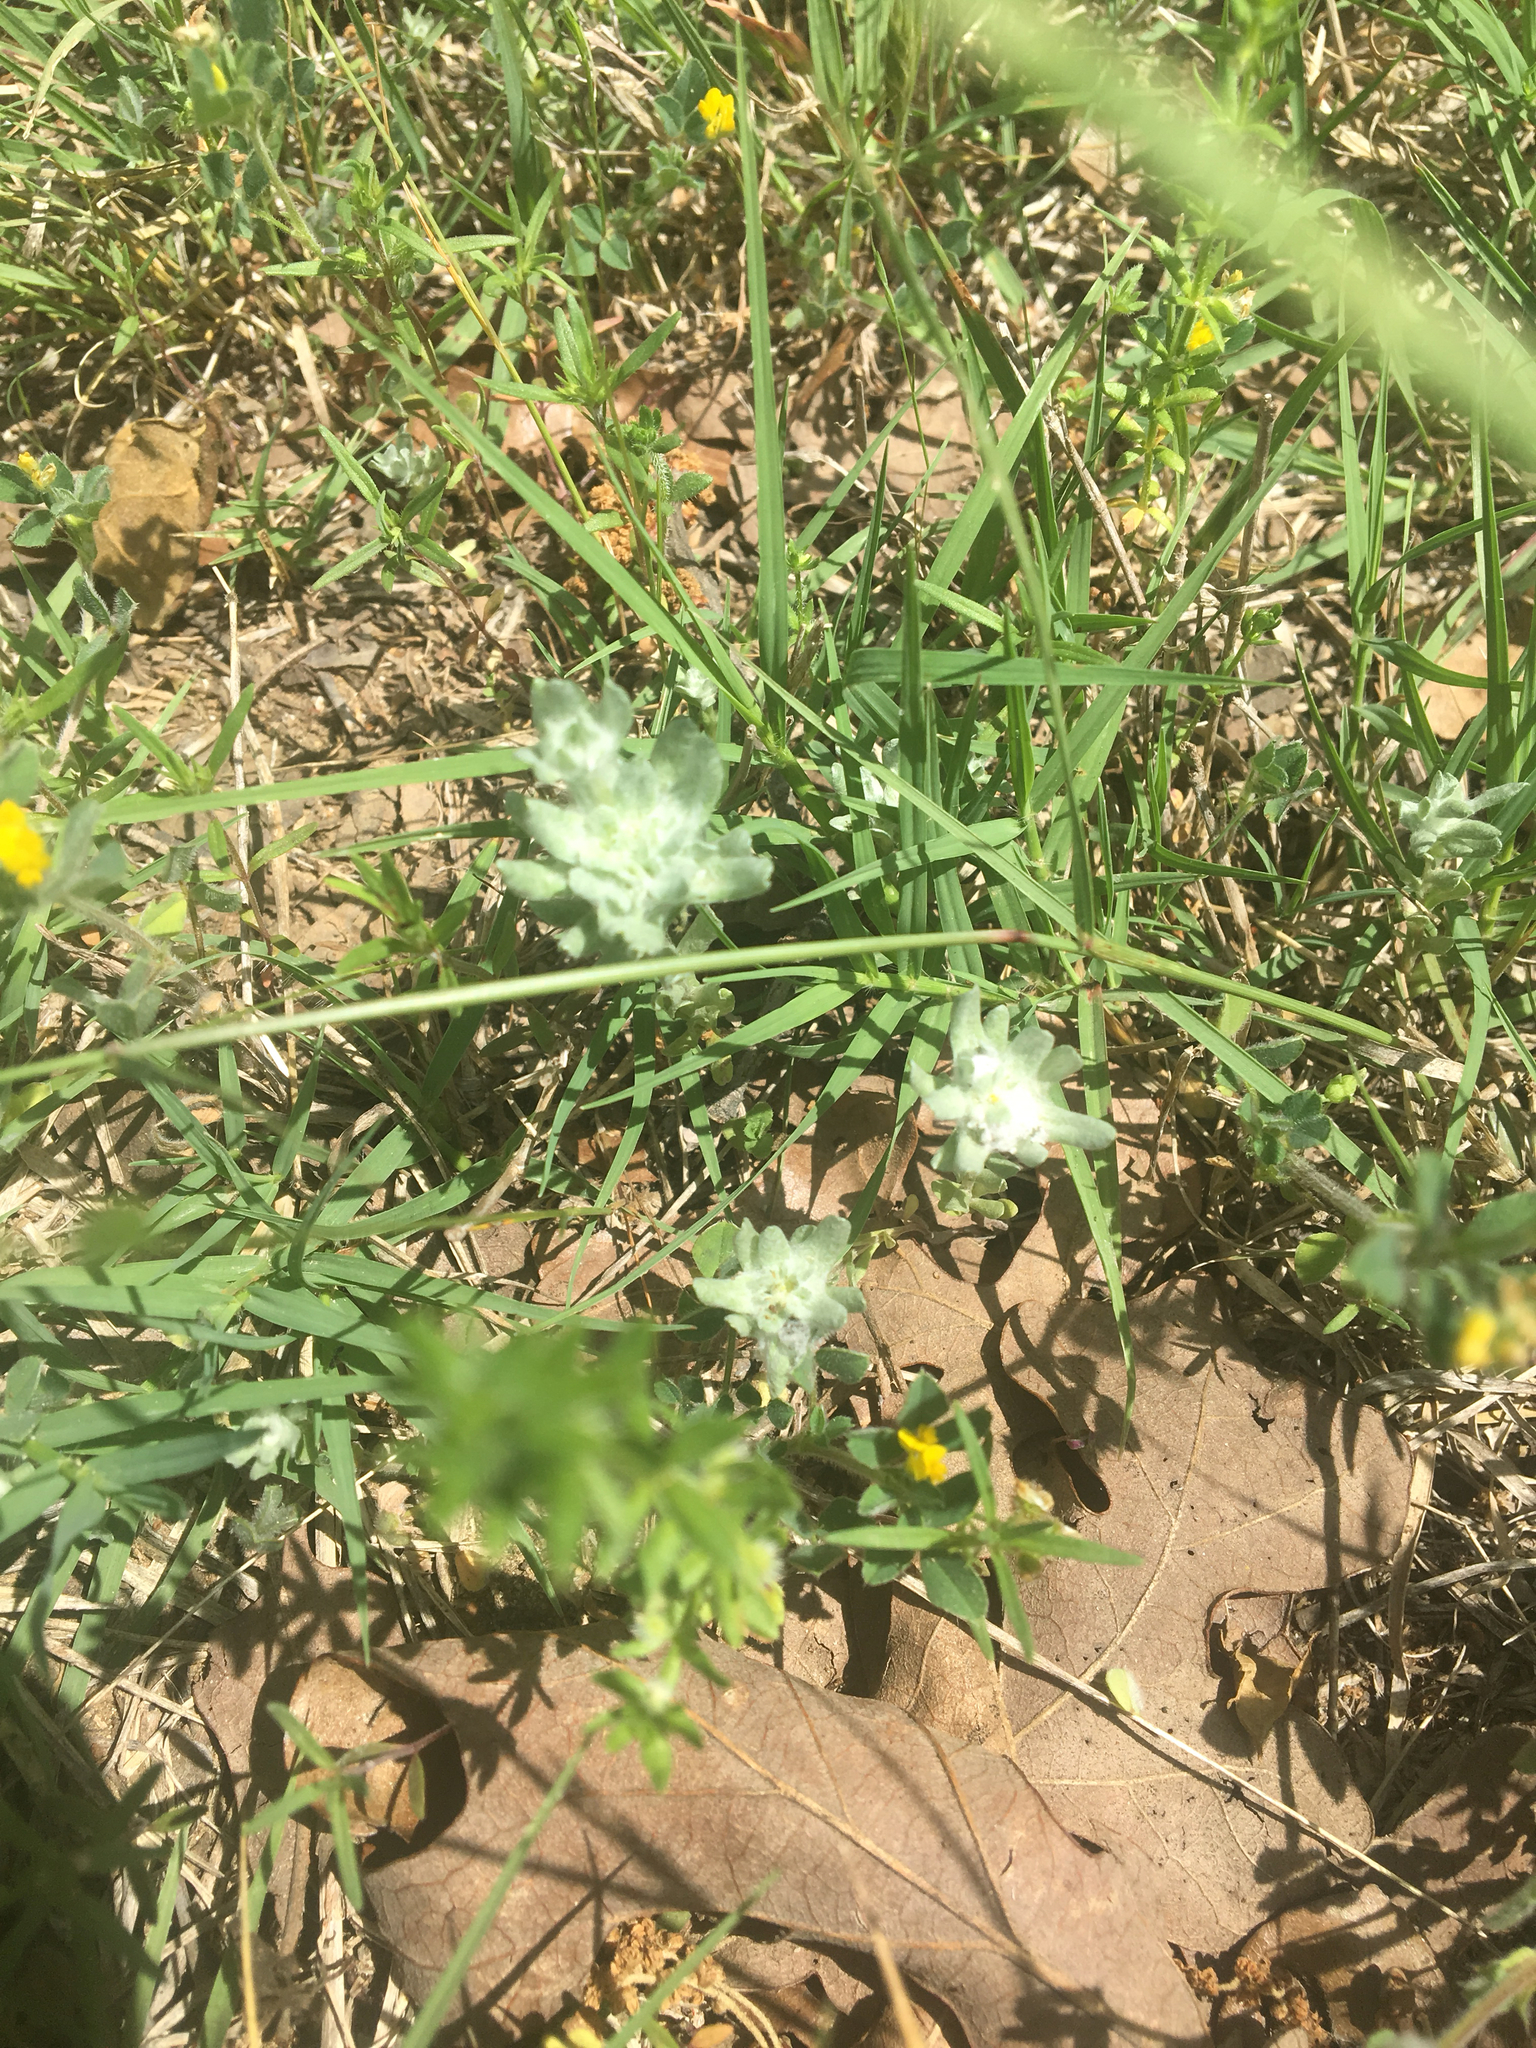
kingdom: Plantae
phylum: Tracheophyta
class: Magnoliopsida
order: Asterales
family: Asteraceae
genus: Diaperia
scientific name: Diaperia prolifera
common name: Big-head rabbit-tobacco
